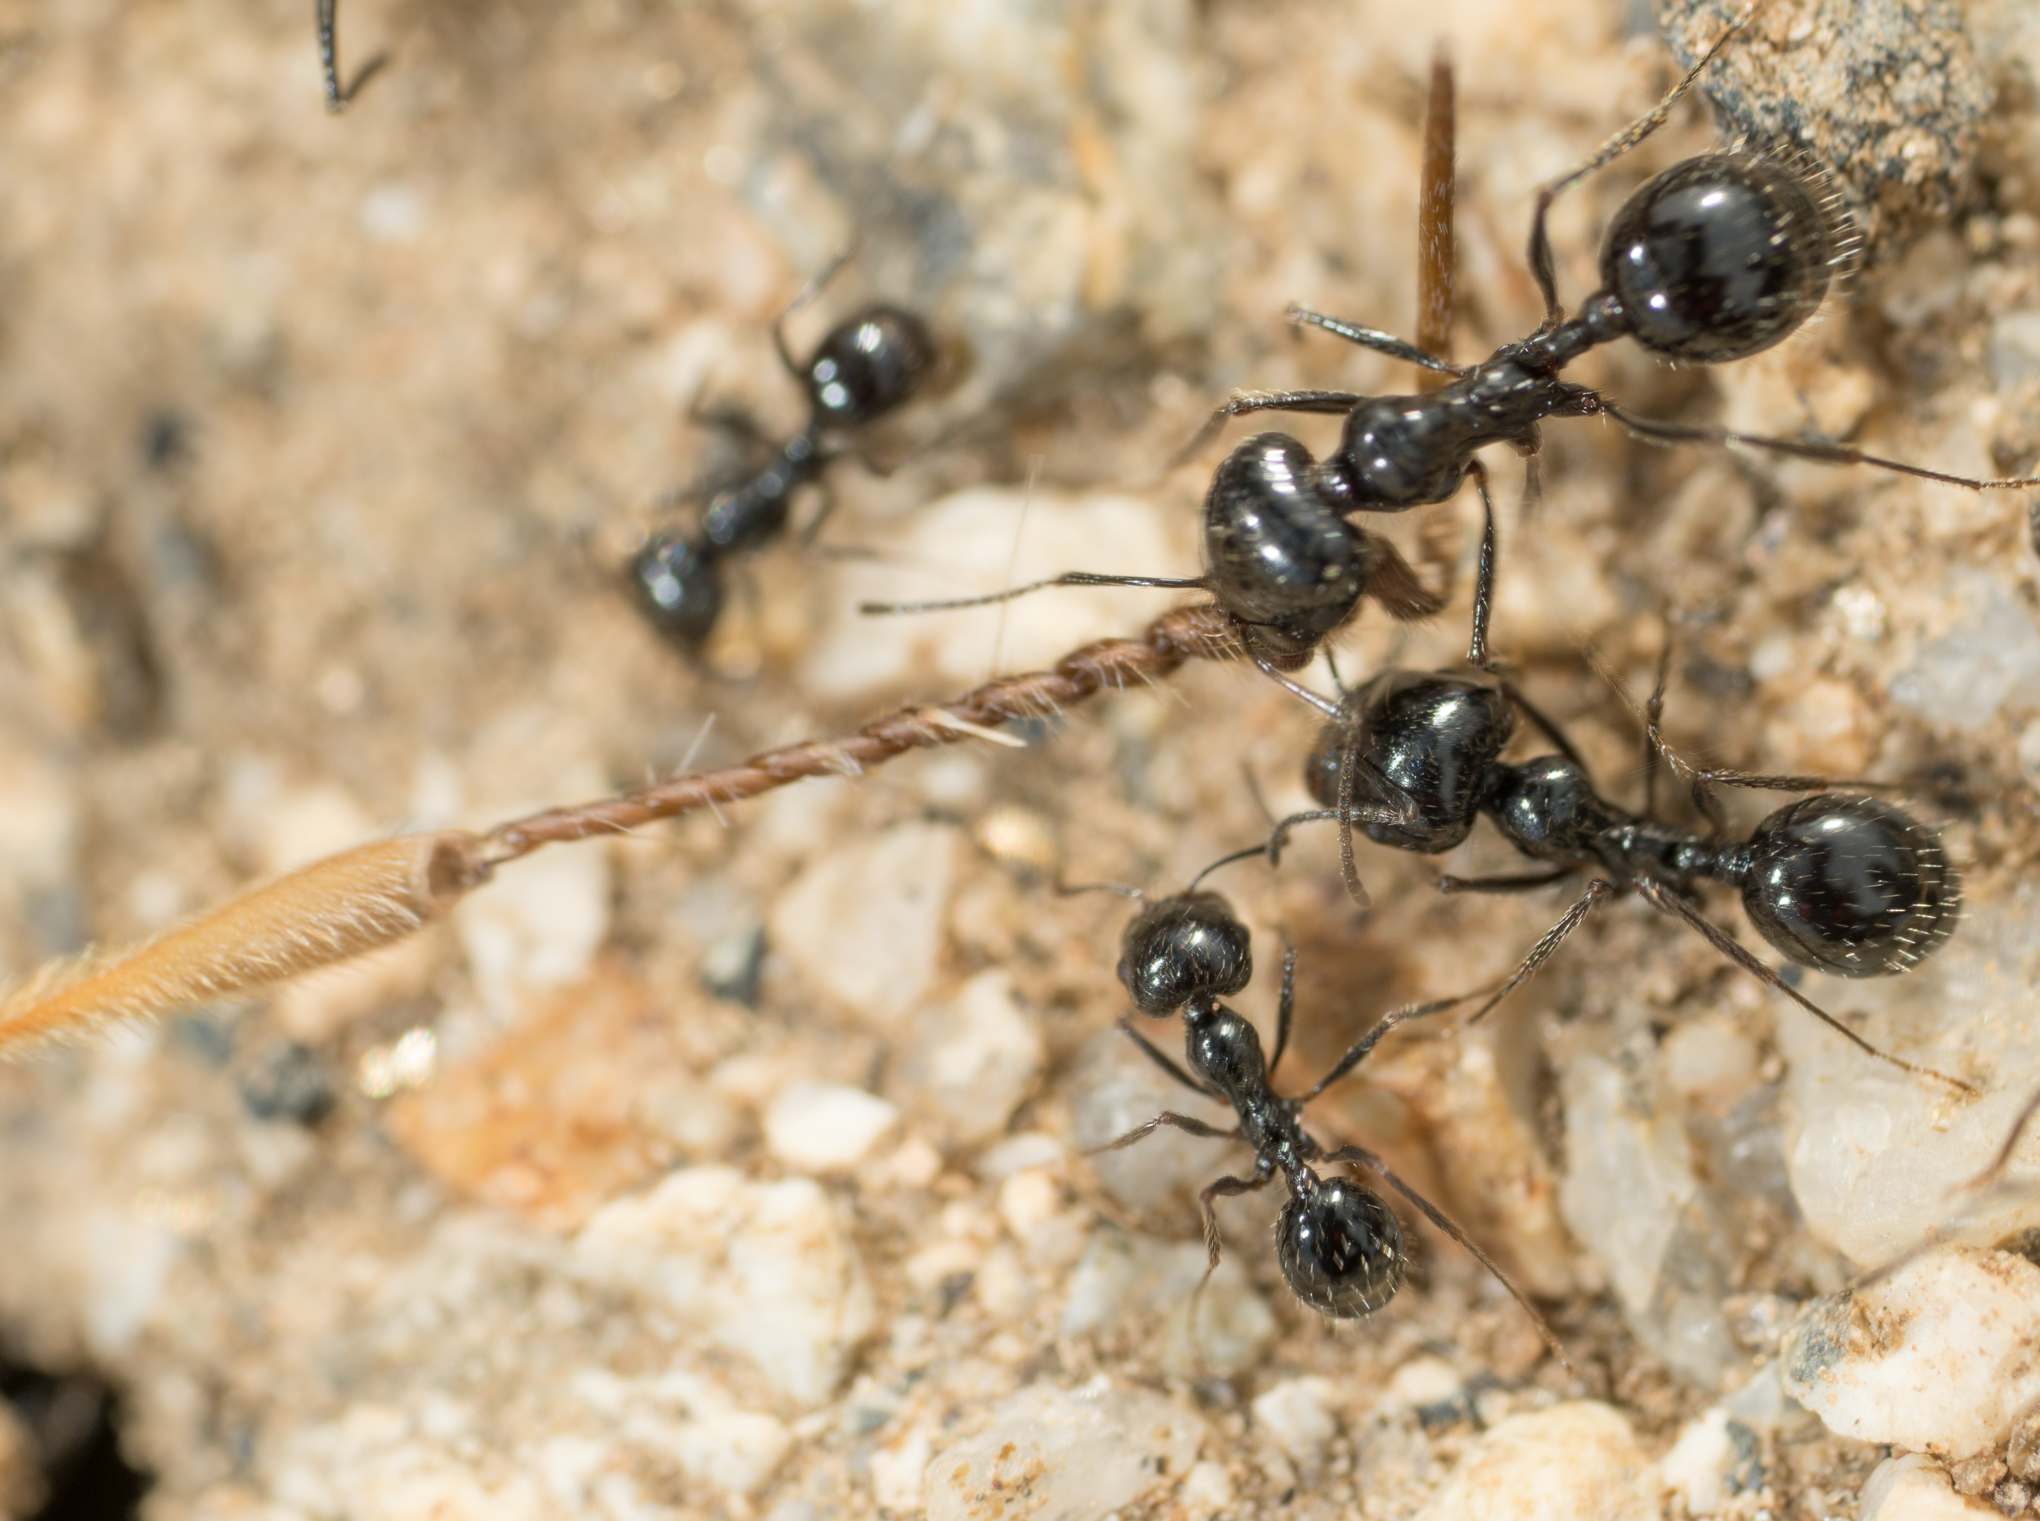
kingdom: Animalia
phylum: Arthropoda
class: Insecta
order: Hymenoptera
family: Formicidae
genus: Messor
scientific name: Messor pergandei
